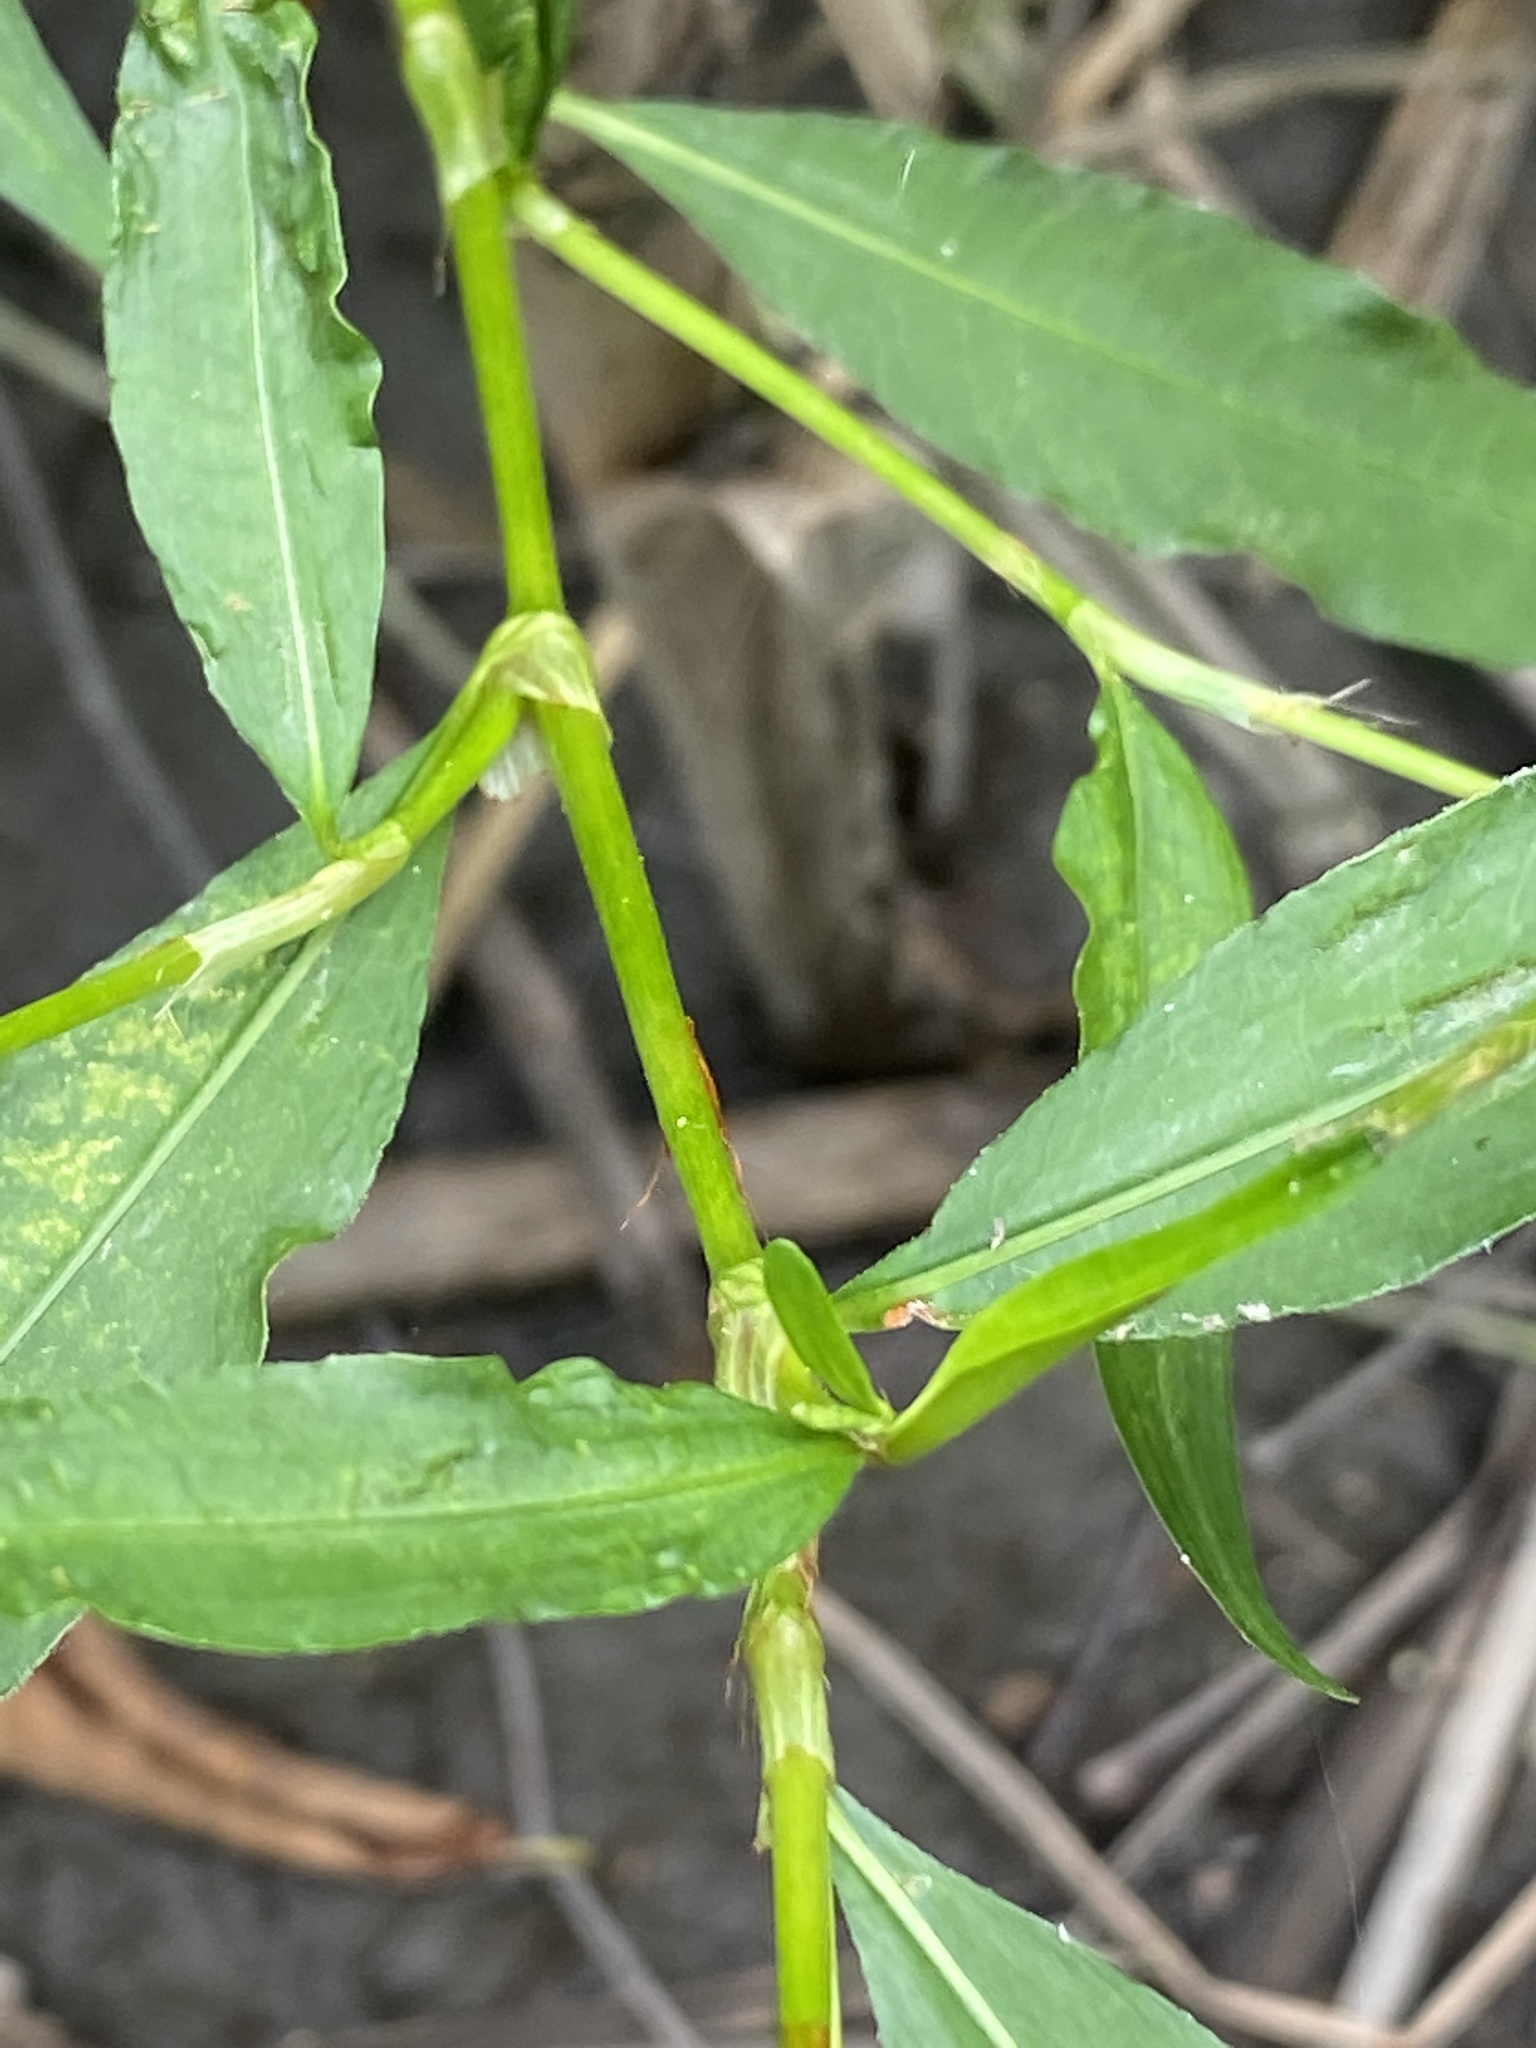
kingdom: Plantae
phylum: Tracheophyta
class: Magnoliopsida
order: Caryophyllales
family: Polygonaceae
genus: Persicaria
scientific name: Persicaria punctata
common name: Dotted smartweed
